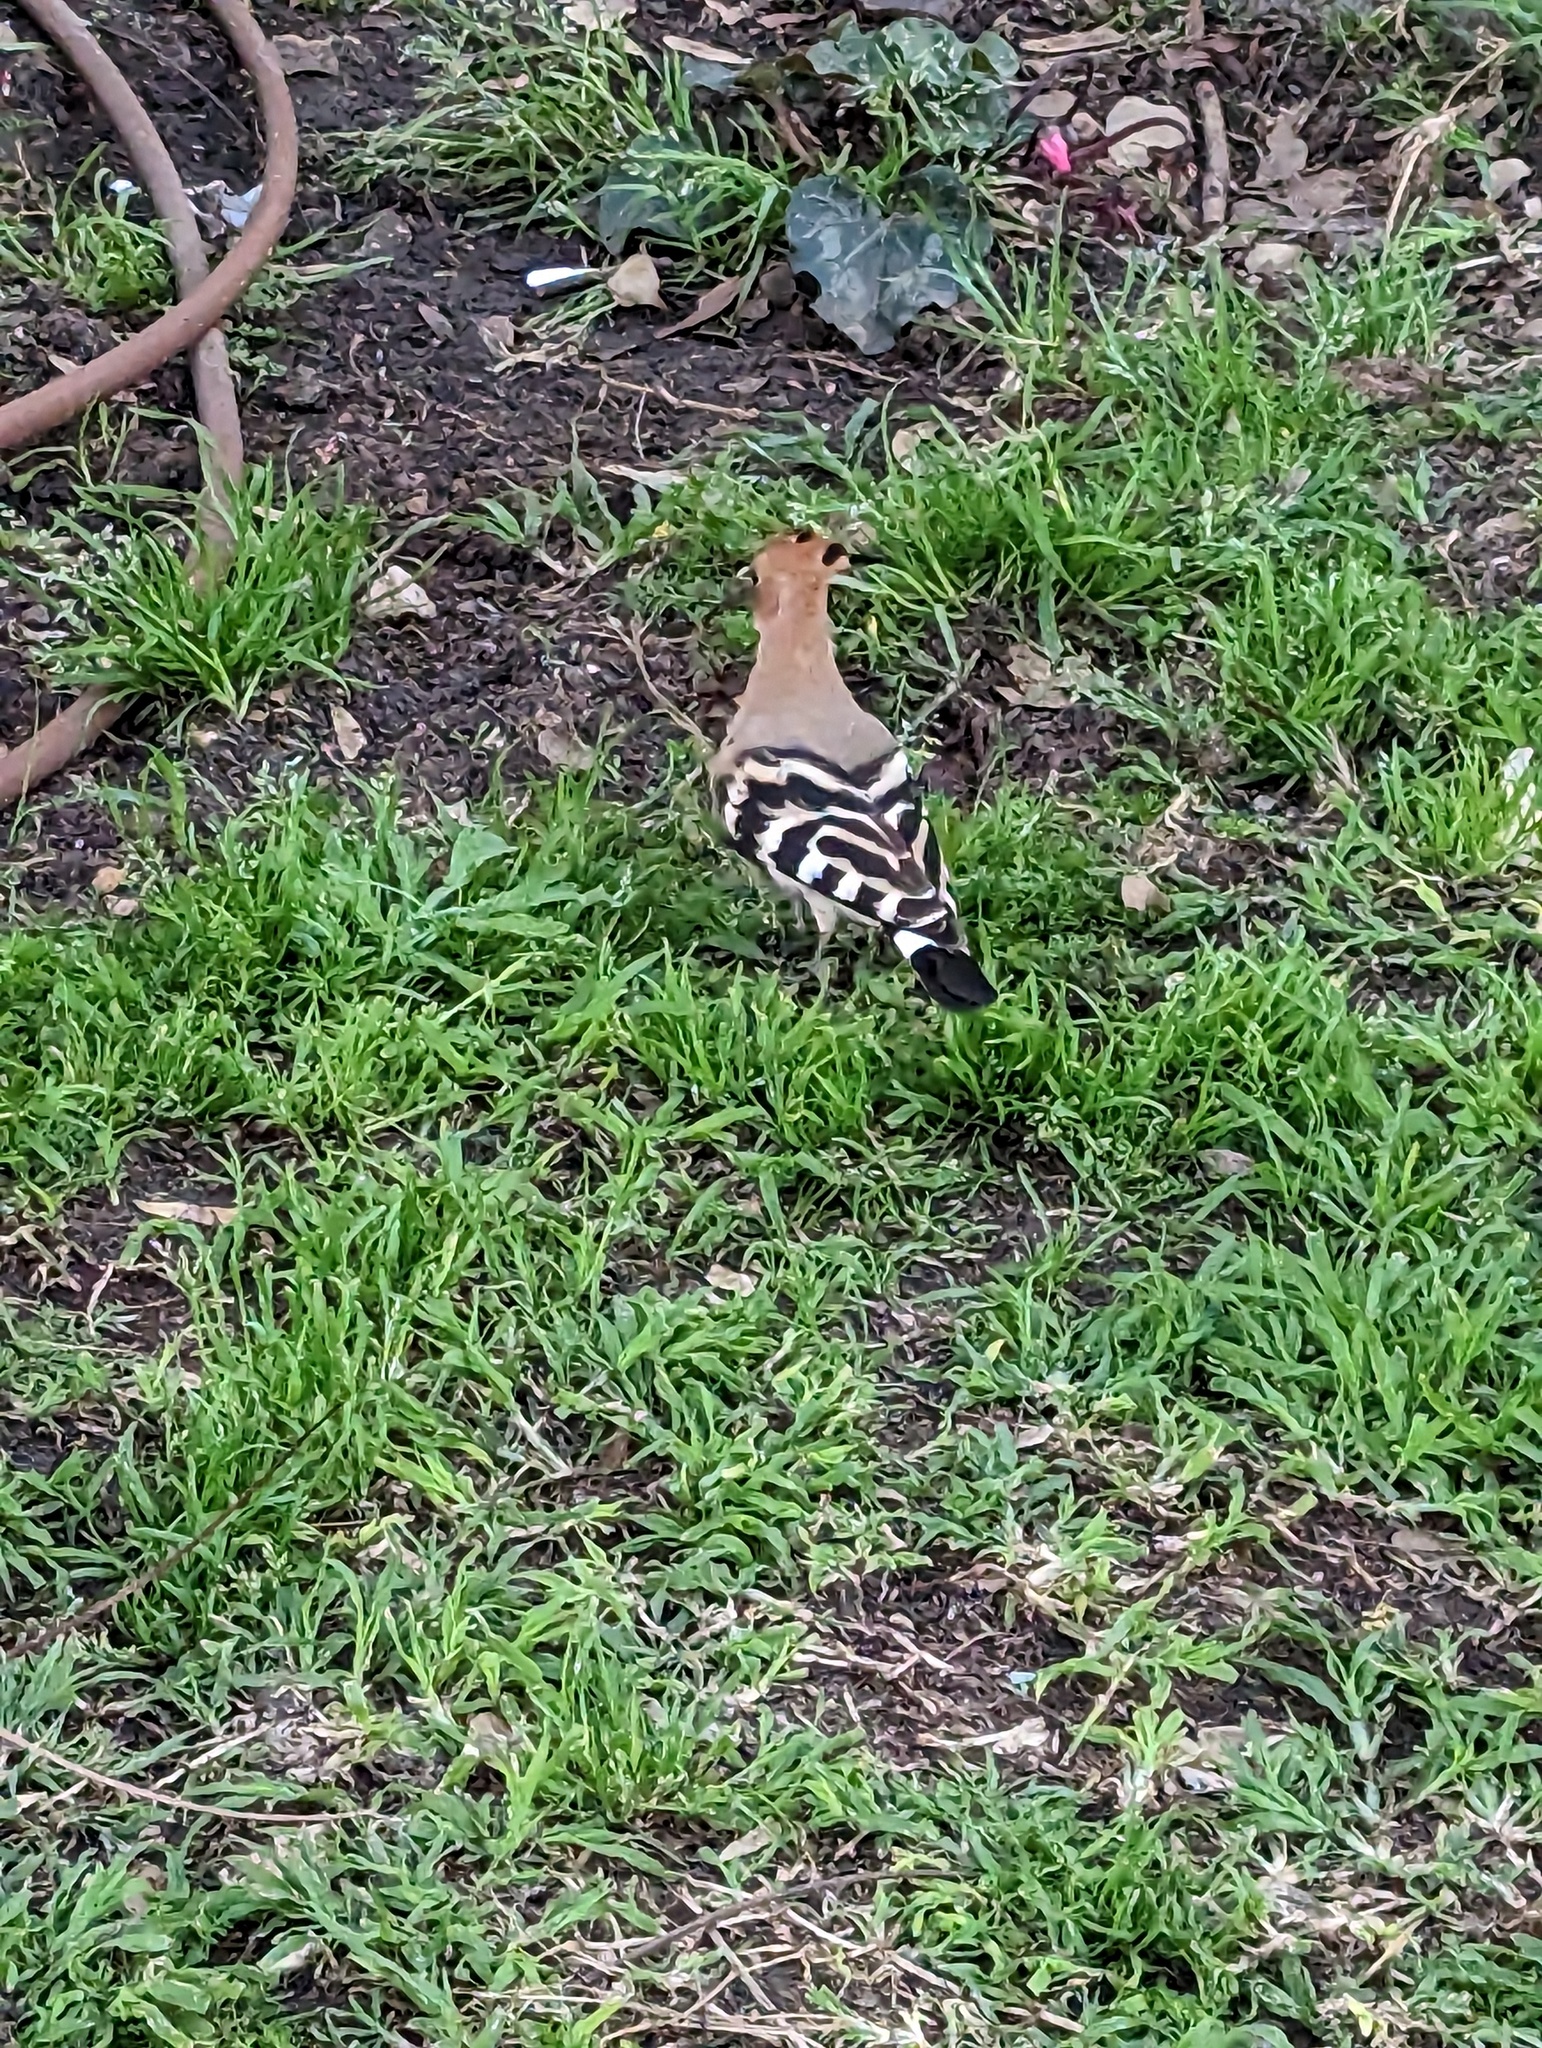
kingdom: Animalia
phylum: Chordata
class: Aves
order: Bucerotiformes
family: Upupidae
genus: Upupa
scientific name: Upupa epops
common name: Eurasian hoopoe
